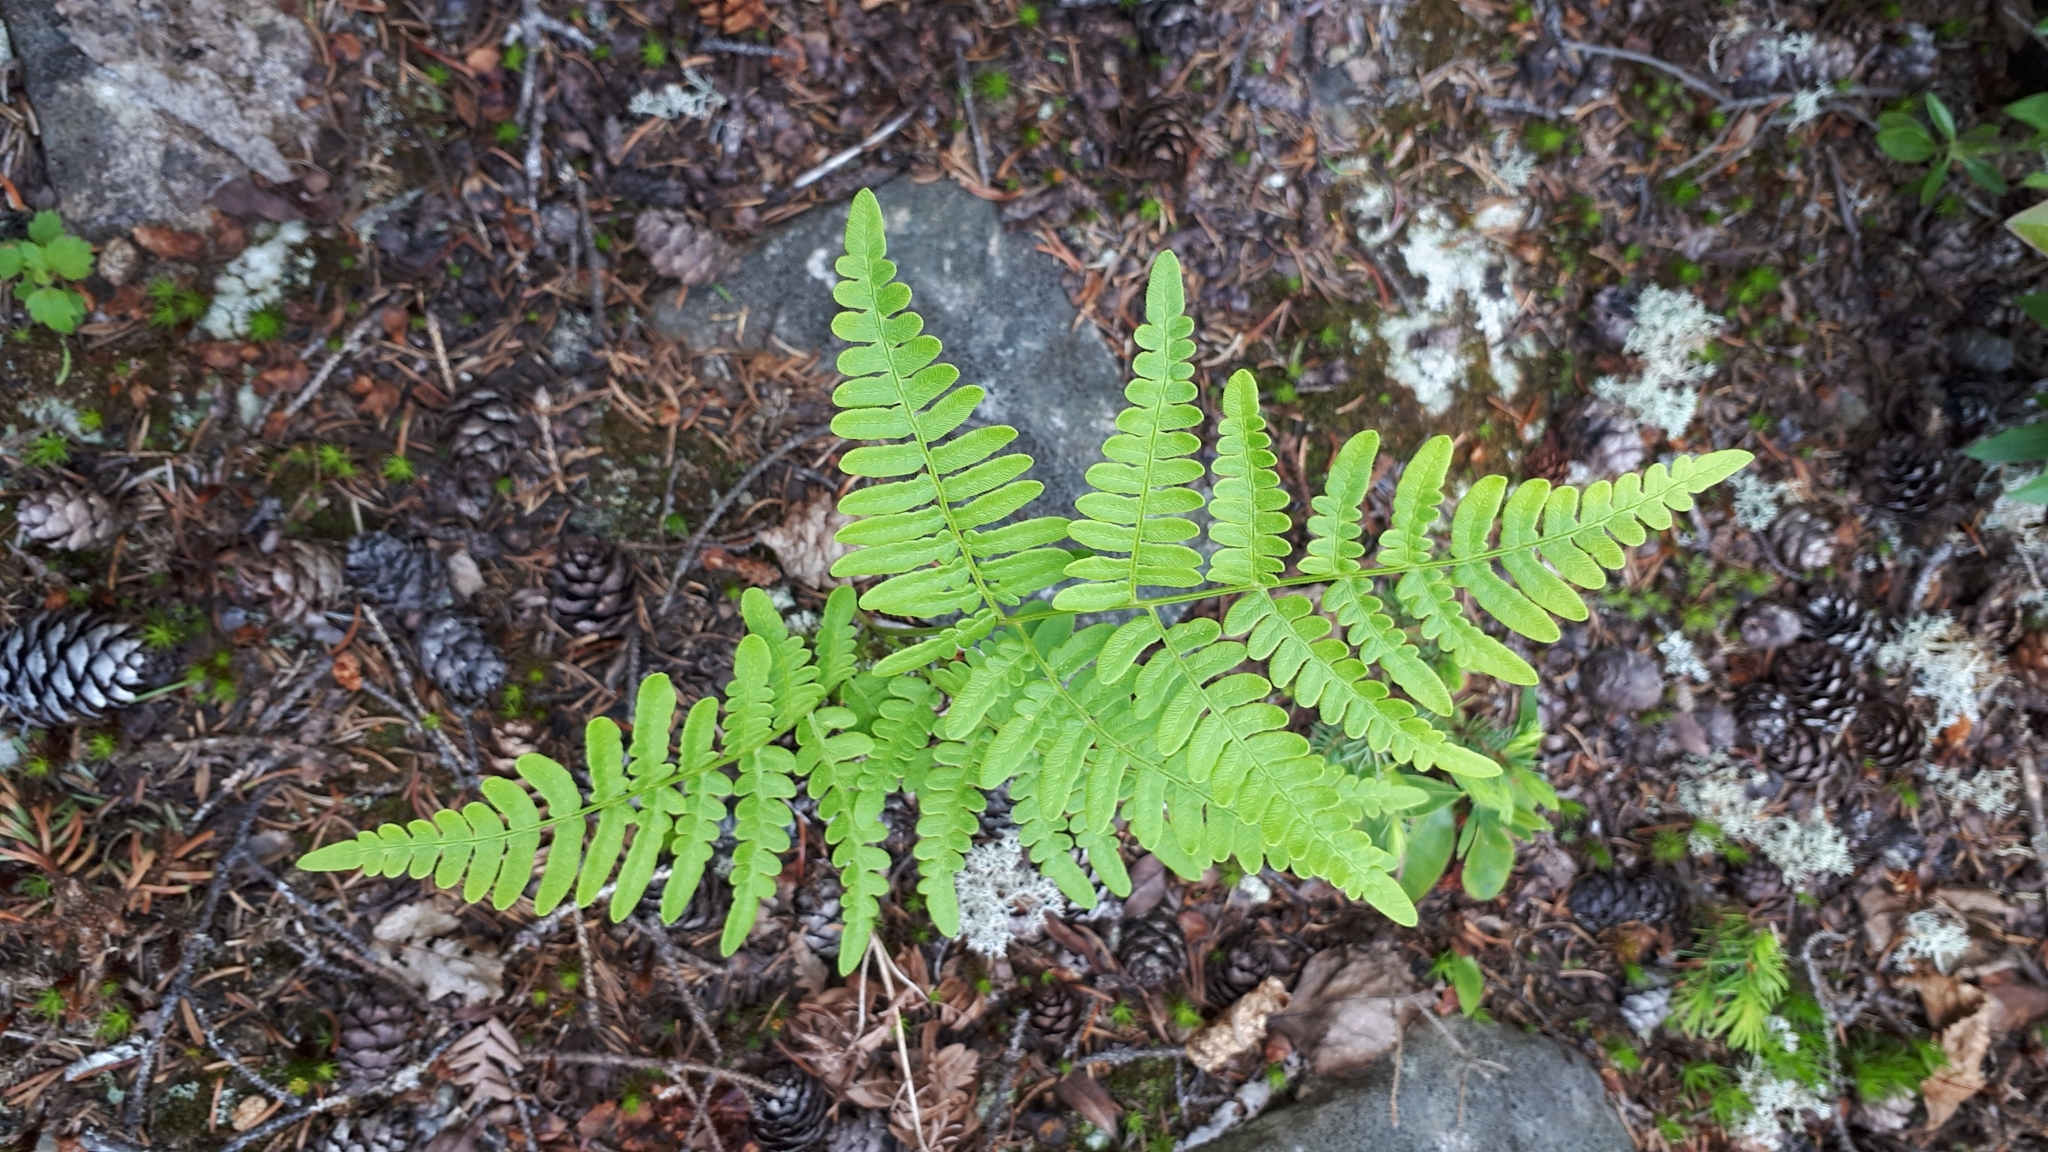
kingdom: Plantae
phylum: Tracheophyta
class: Polypodiopsida
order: Polypodiales
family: Dennstaedtiaceae
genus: Pteridium
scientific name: Pteridium aquilinum
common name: Bracken
